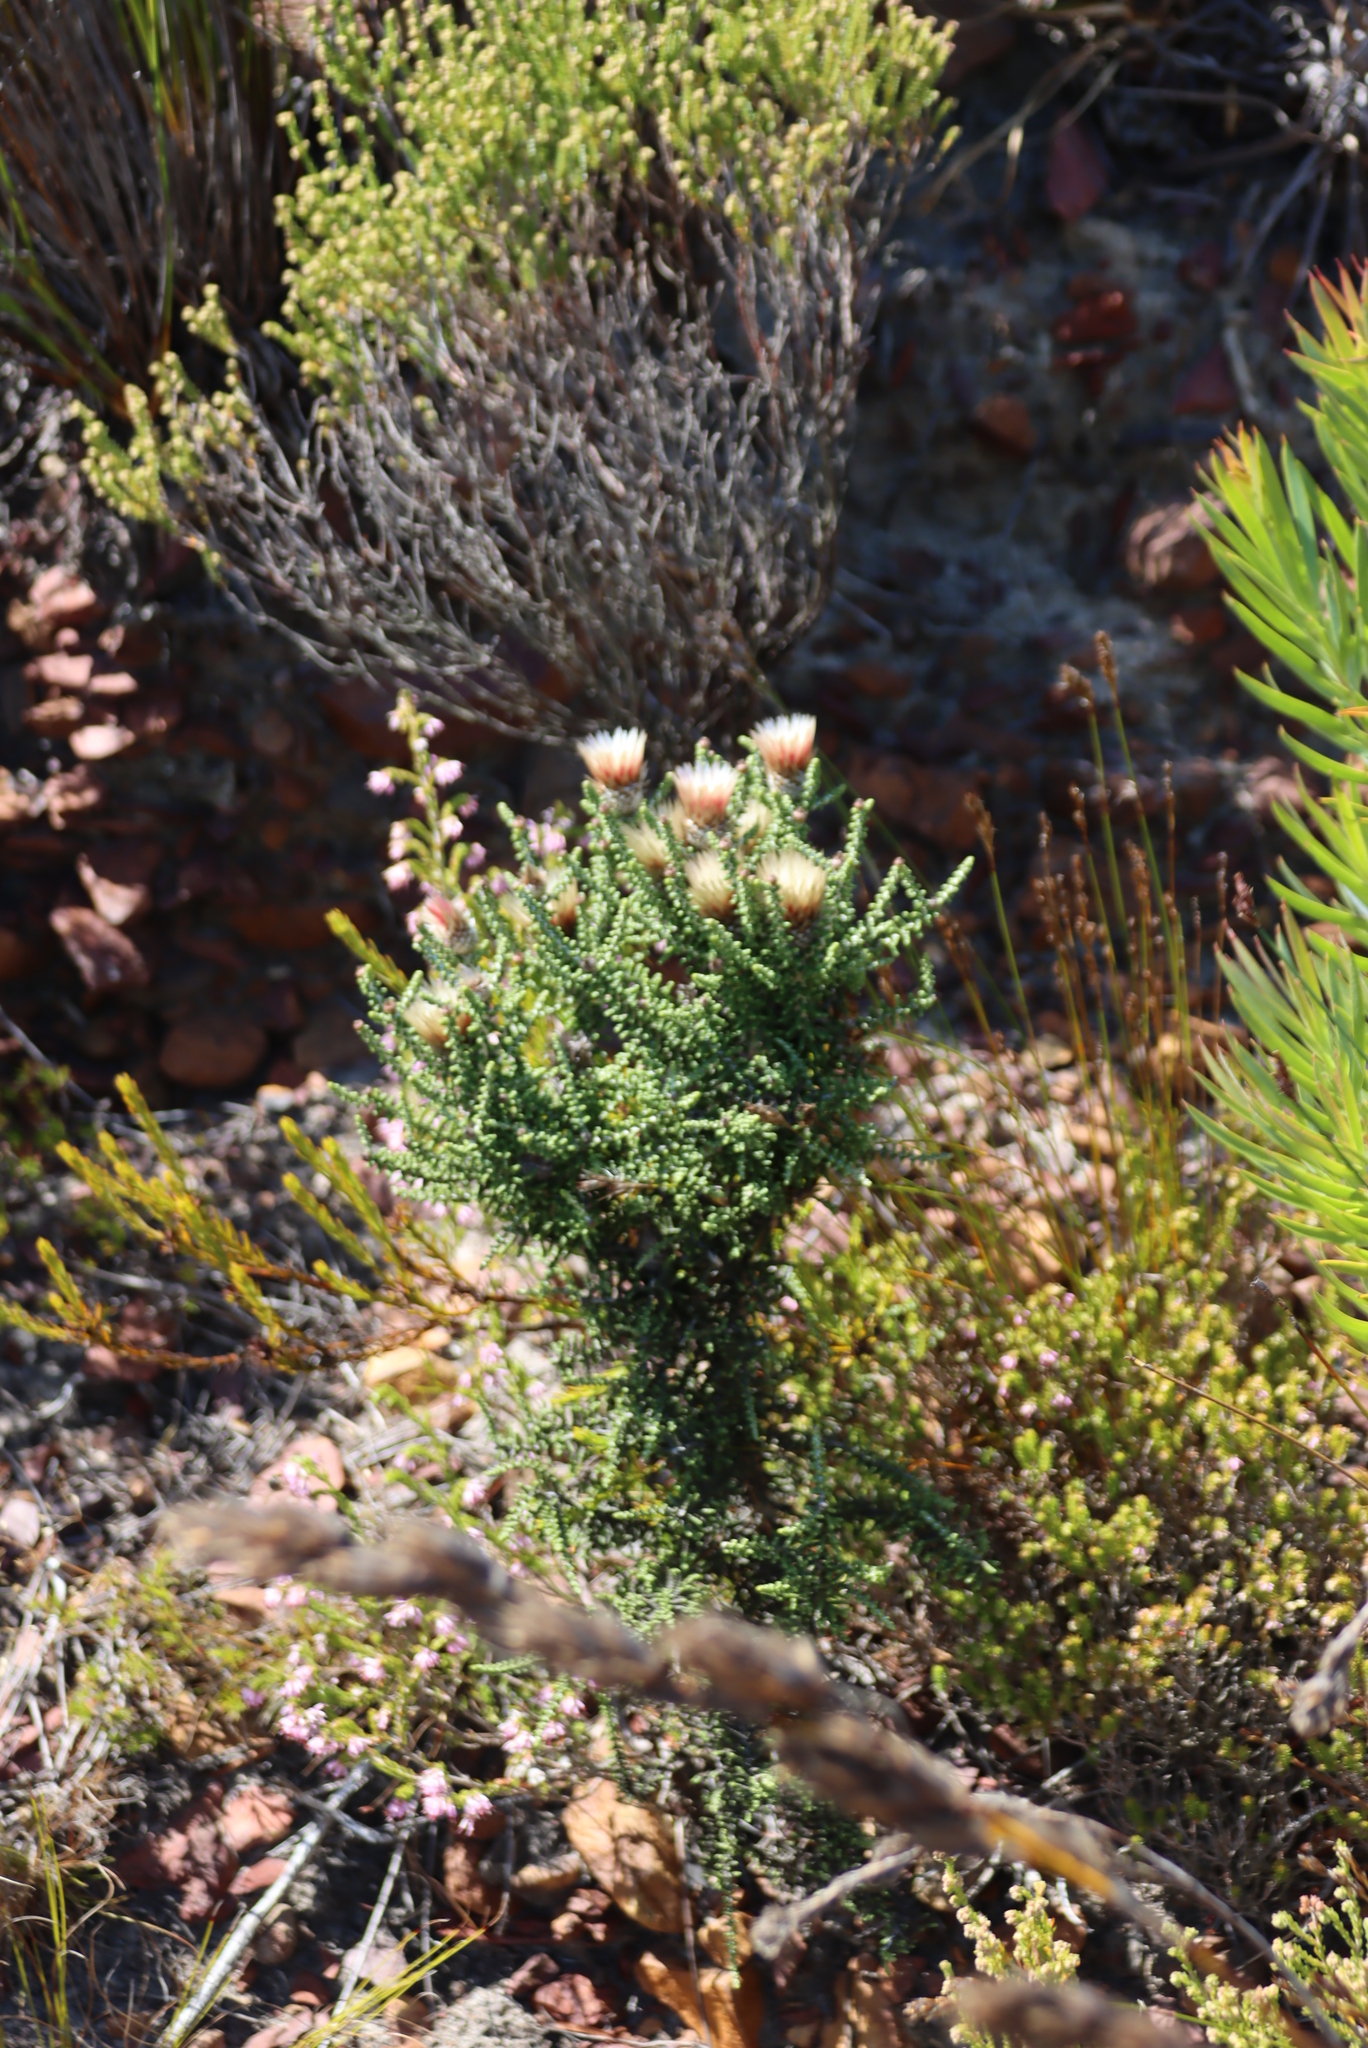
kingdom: Plantae
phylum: Tracheophyta
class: Magnoliopsida
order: Asterales
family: Asteraceae
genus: Phaenocoma
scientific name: Phaenocoma prolifera
